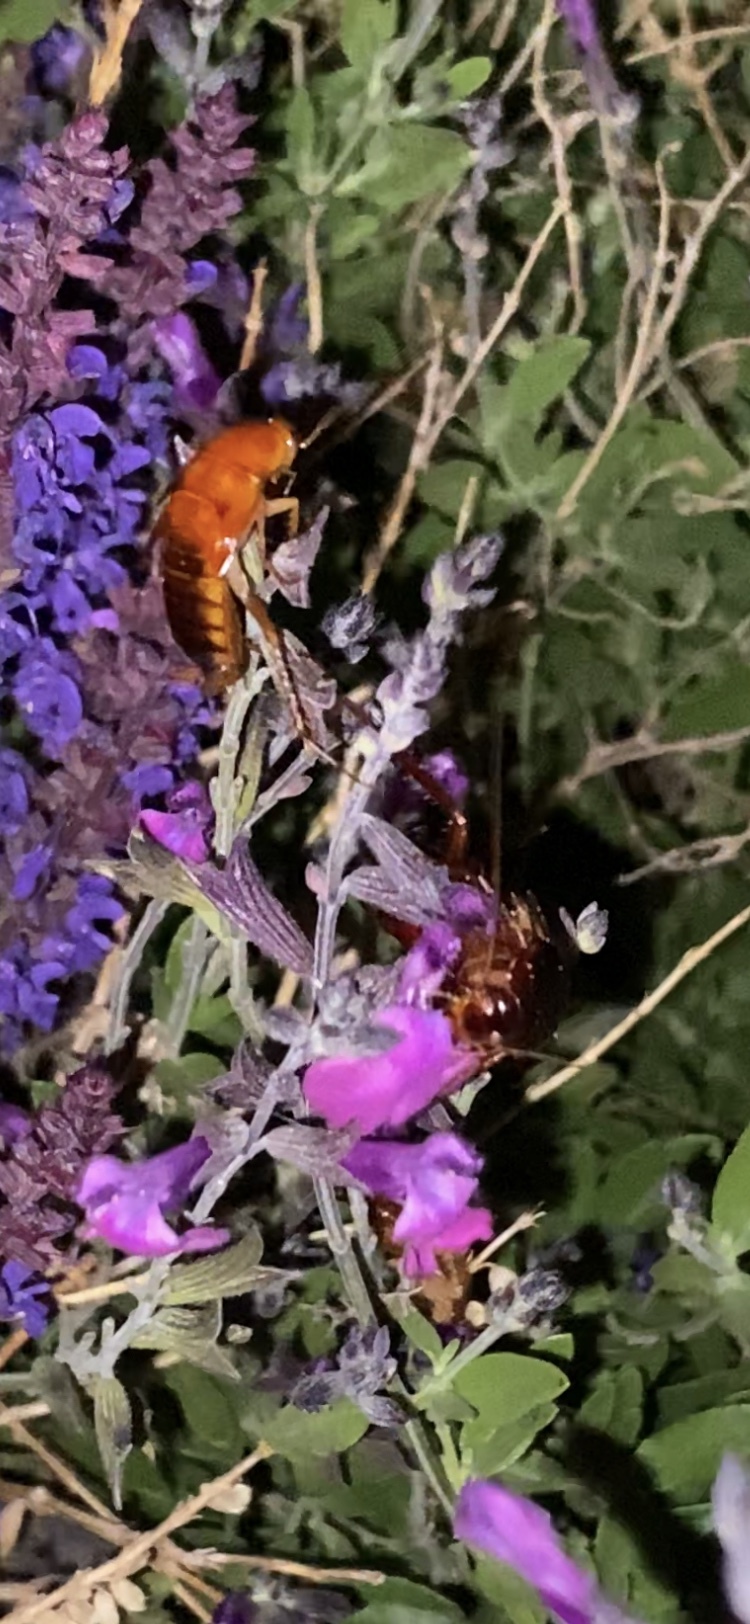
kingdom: Animalia
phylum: Arthropoda
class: Insecta
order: Blattodea
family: Blattidae
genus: Periplaneta
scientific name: Periplaneta lateralis
